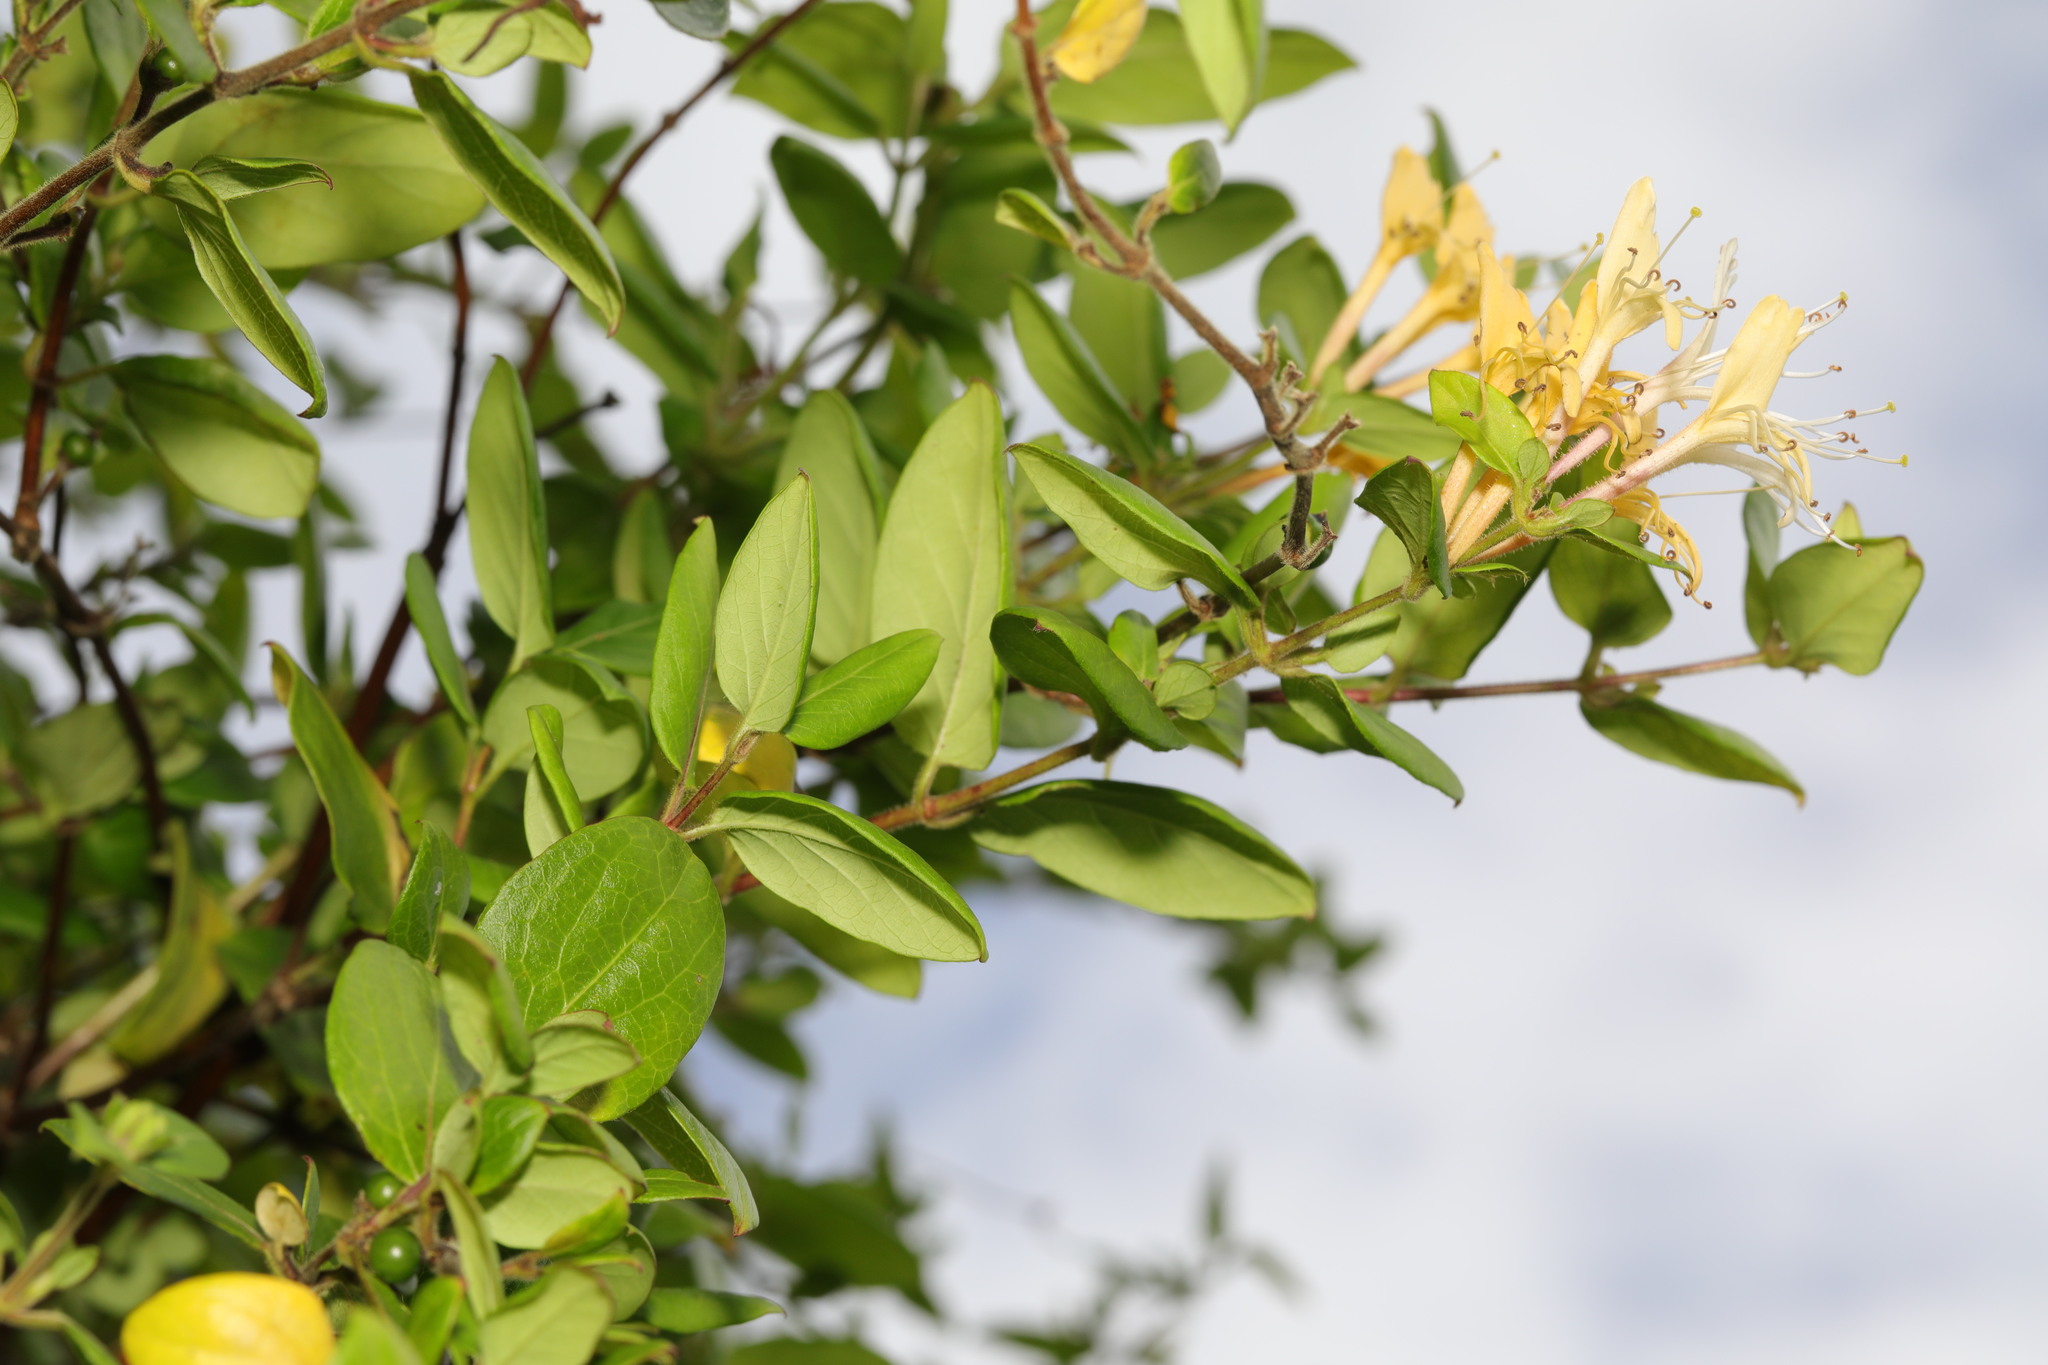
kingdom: Plantae
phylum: Tracheophyta
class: Magnoliopsida
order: Dipsacales
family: Caprifoliaceae
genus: Lonicera
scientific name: Lonicera japonica
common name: Japanese honeysuckle
